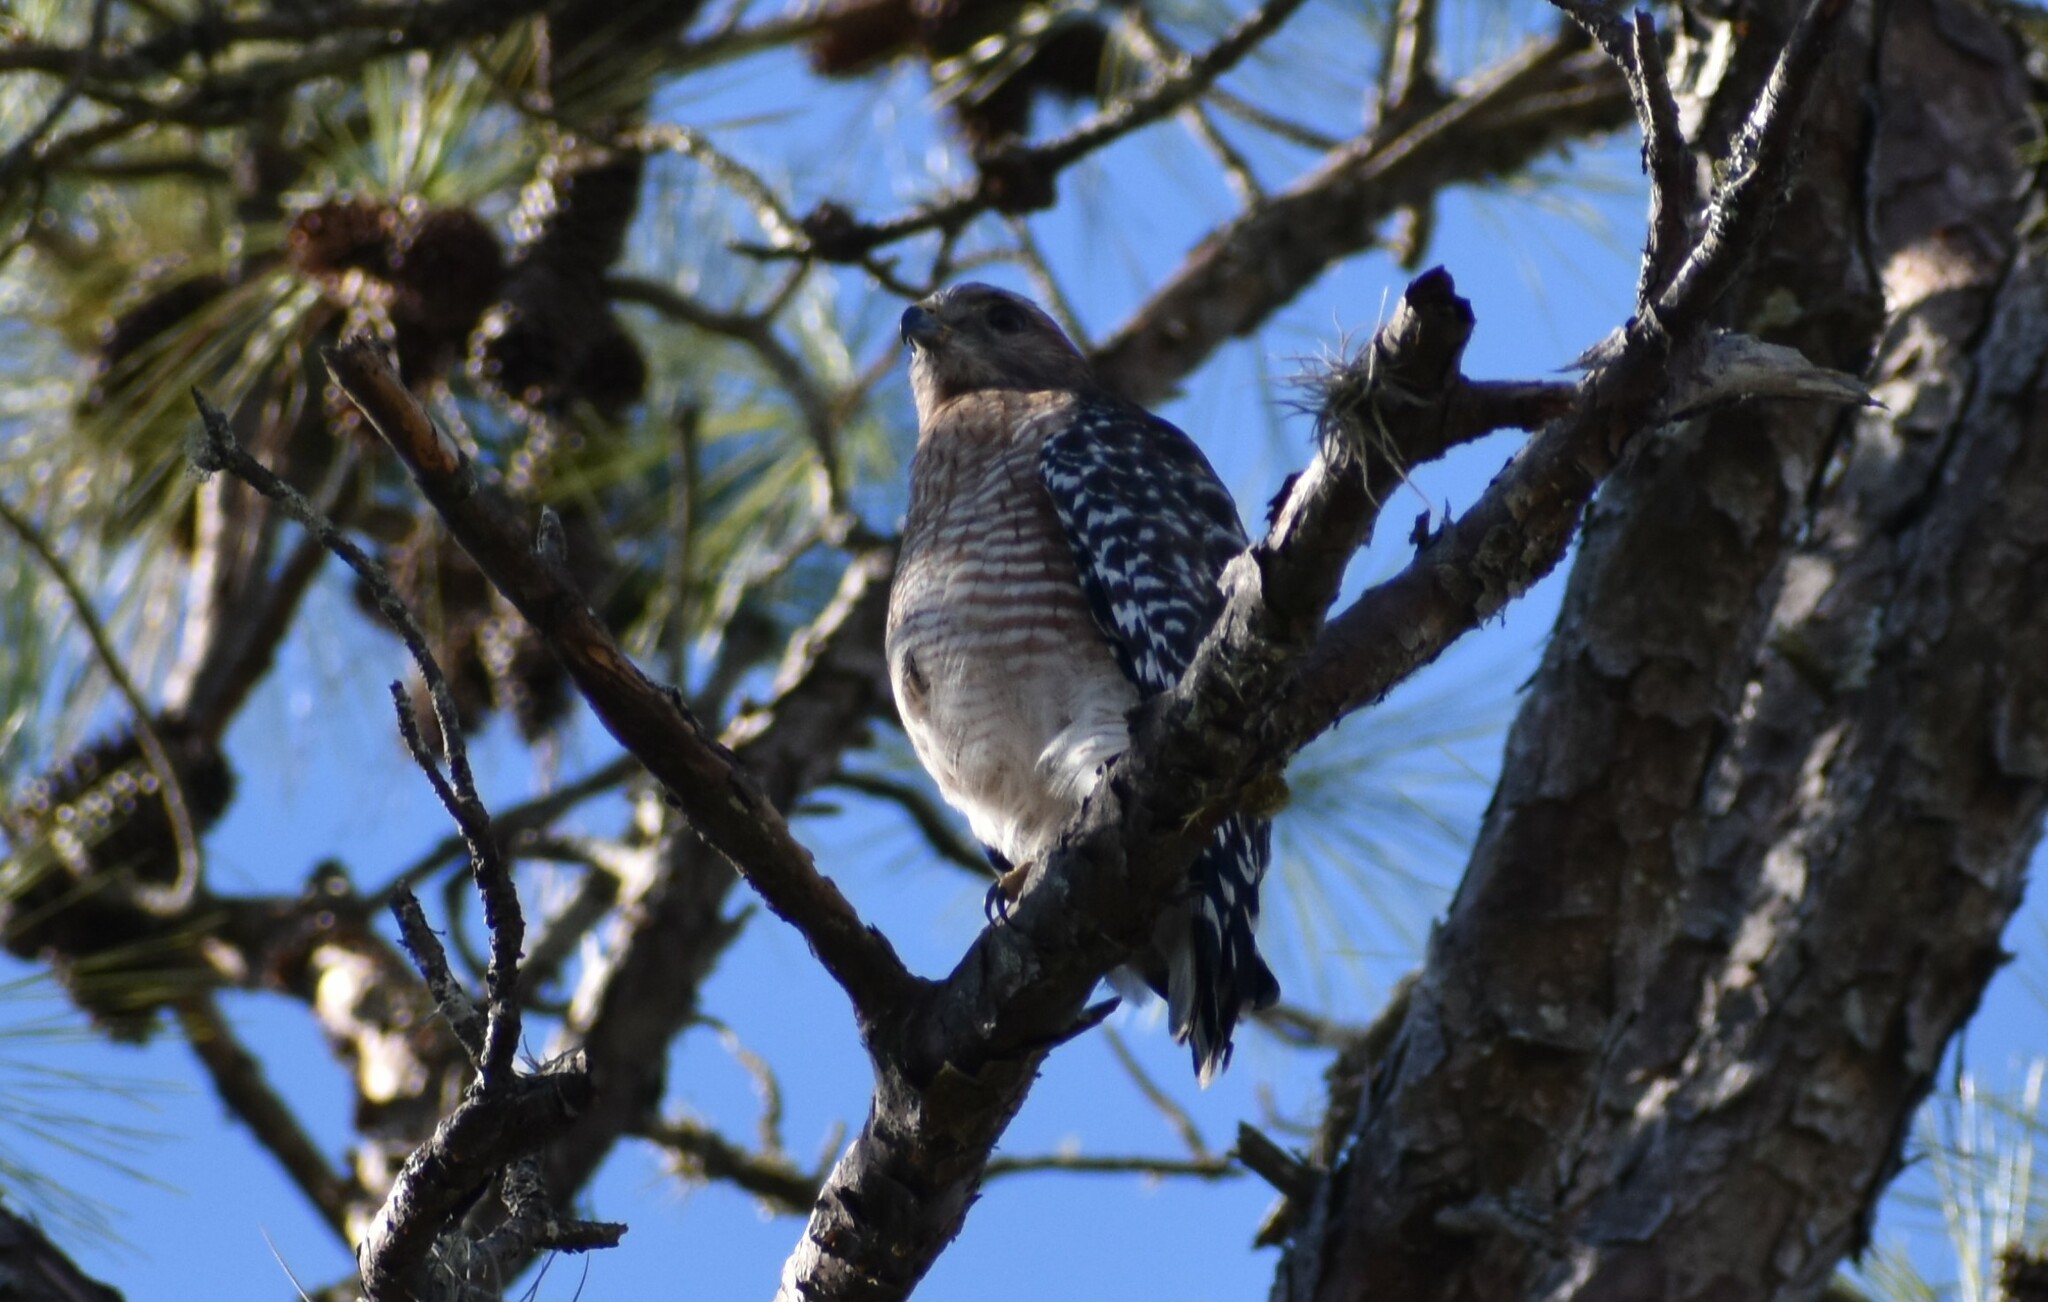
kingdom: Animalia
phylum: Chordata
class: Aves
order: Accipitriformes
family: Accipitridae
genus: Buteo
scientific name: Buteo lineatus
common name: Red-shouldered hawk
